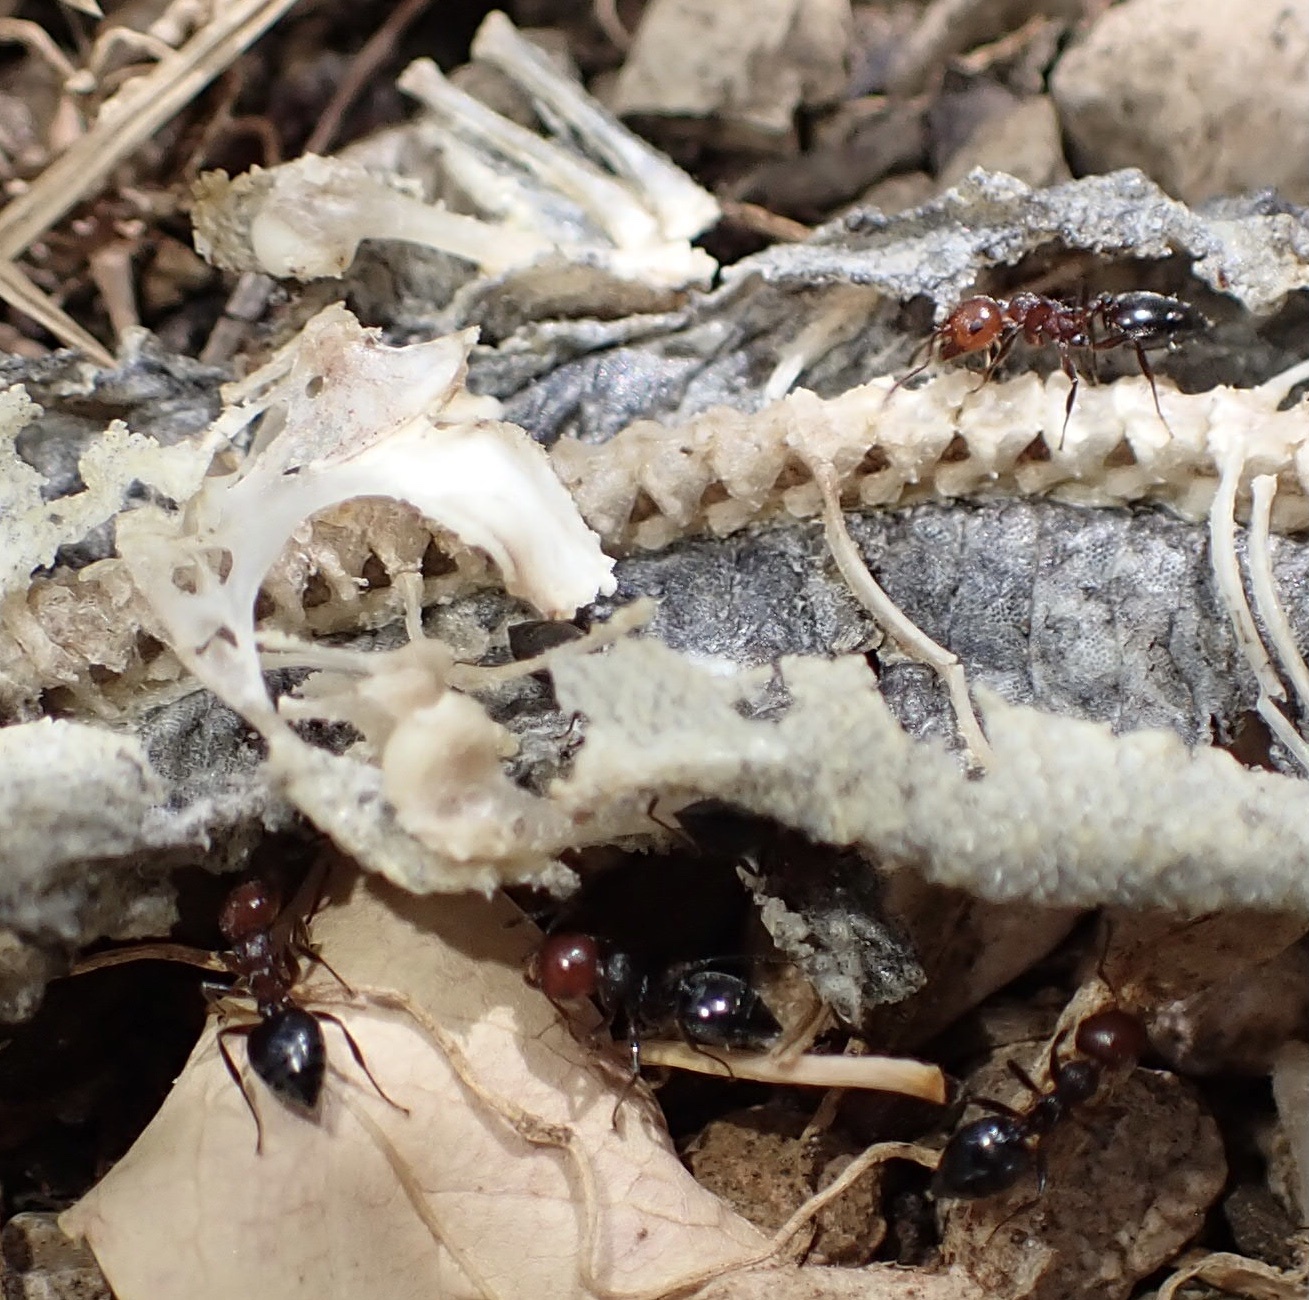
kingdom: Animalia
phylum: Arthropoda
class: Insecta
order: Hymenoptera
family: Formicidae
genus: Crematogaster
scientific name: Crematogaster scutellaris
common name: Fourmi du liège
